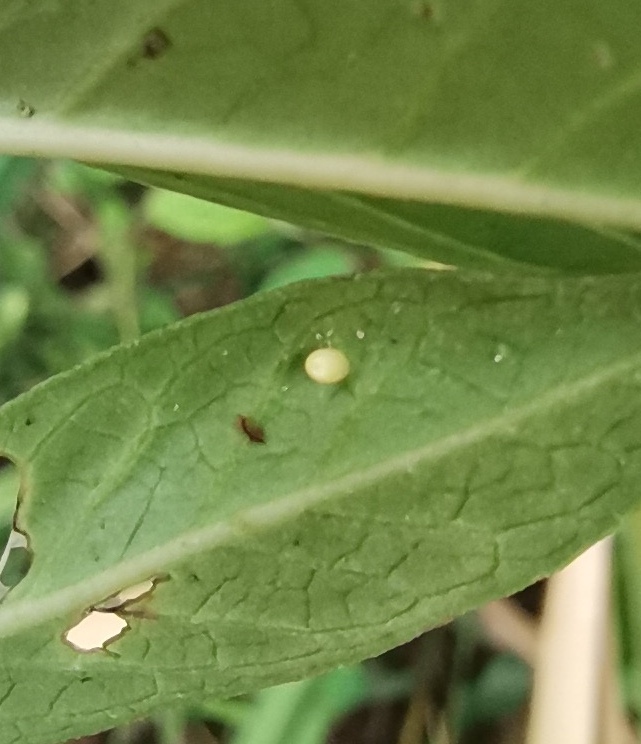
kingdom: Animalia
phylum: Arthropoda
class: Insecta
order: Lepidoptera
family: Nymphalidae
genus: Danaus
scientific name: Danaus plexippus
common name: Monarch
